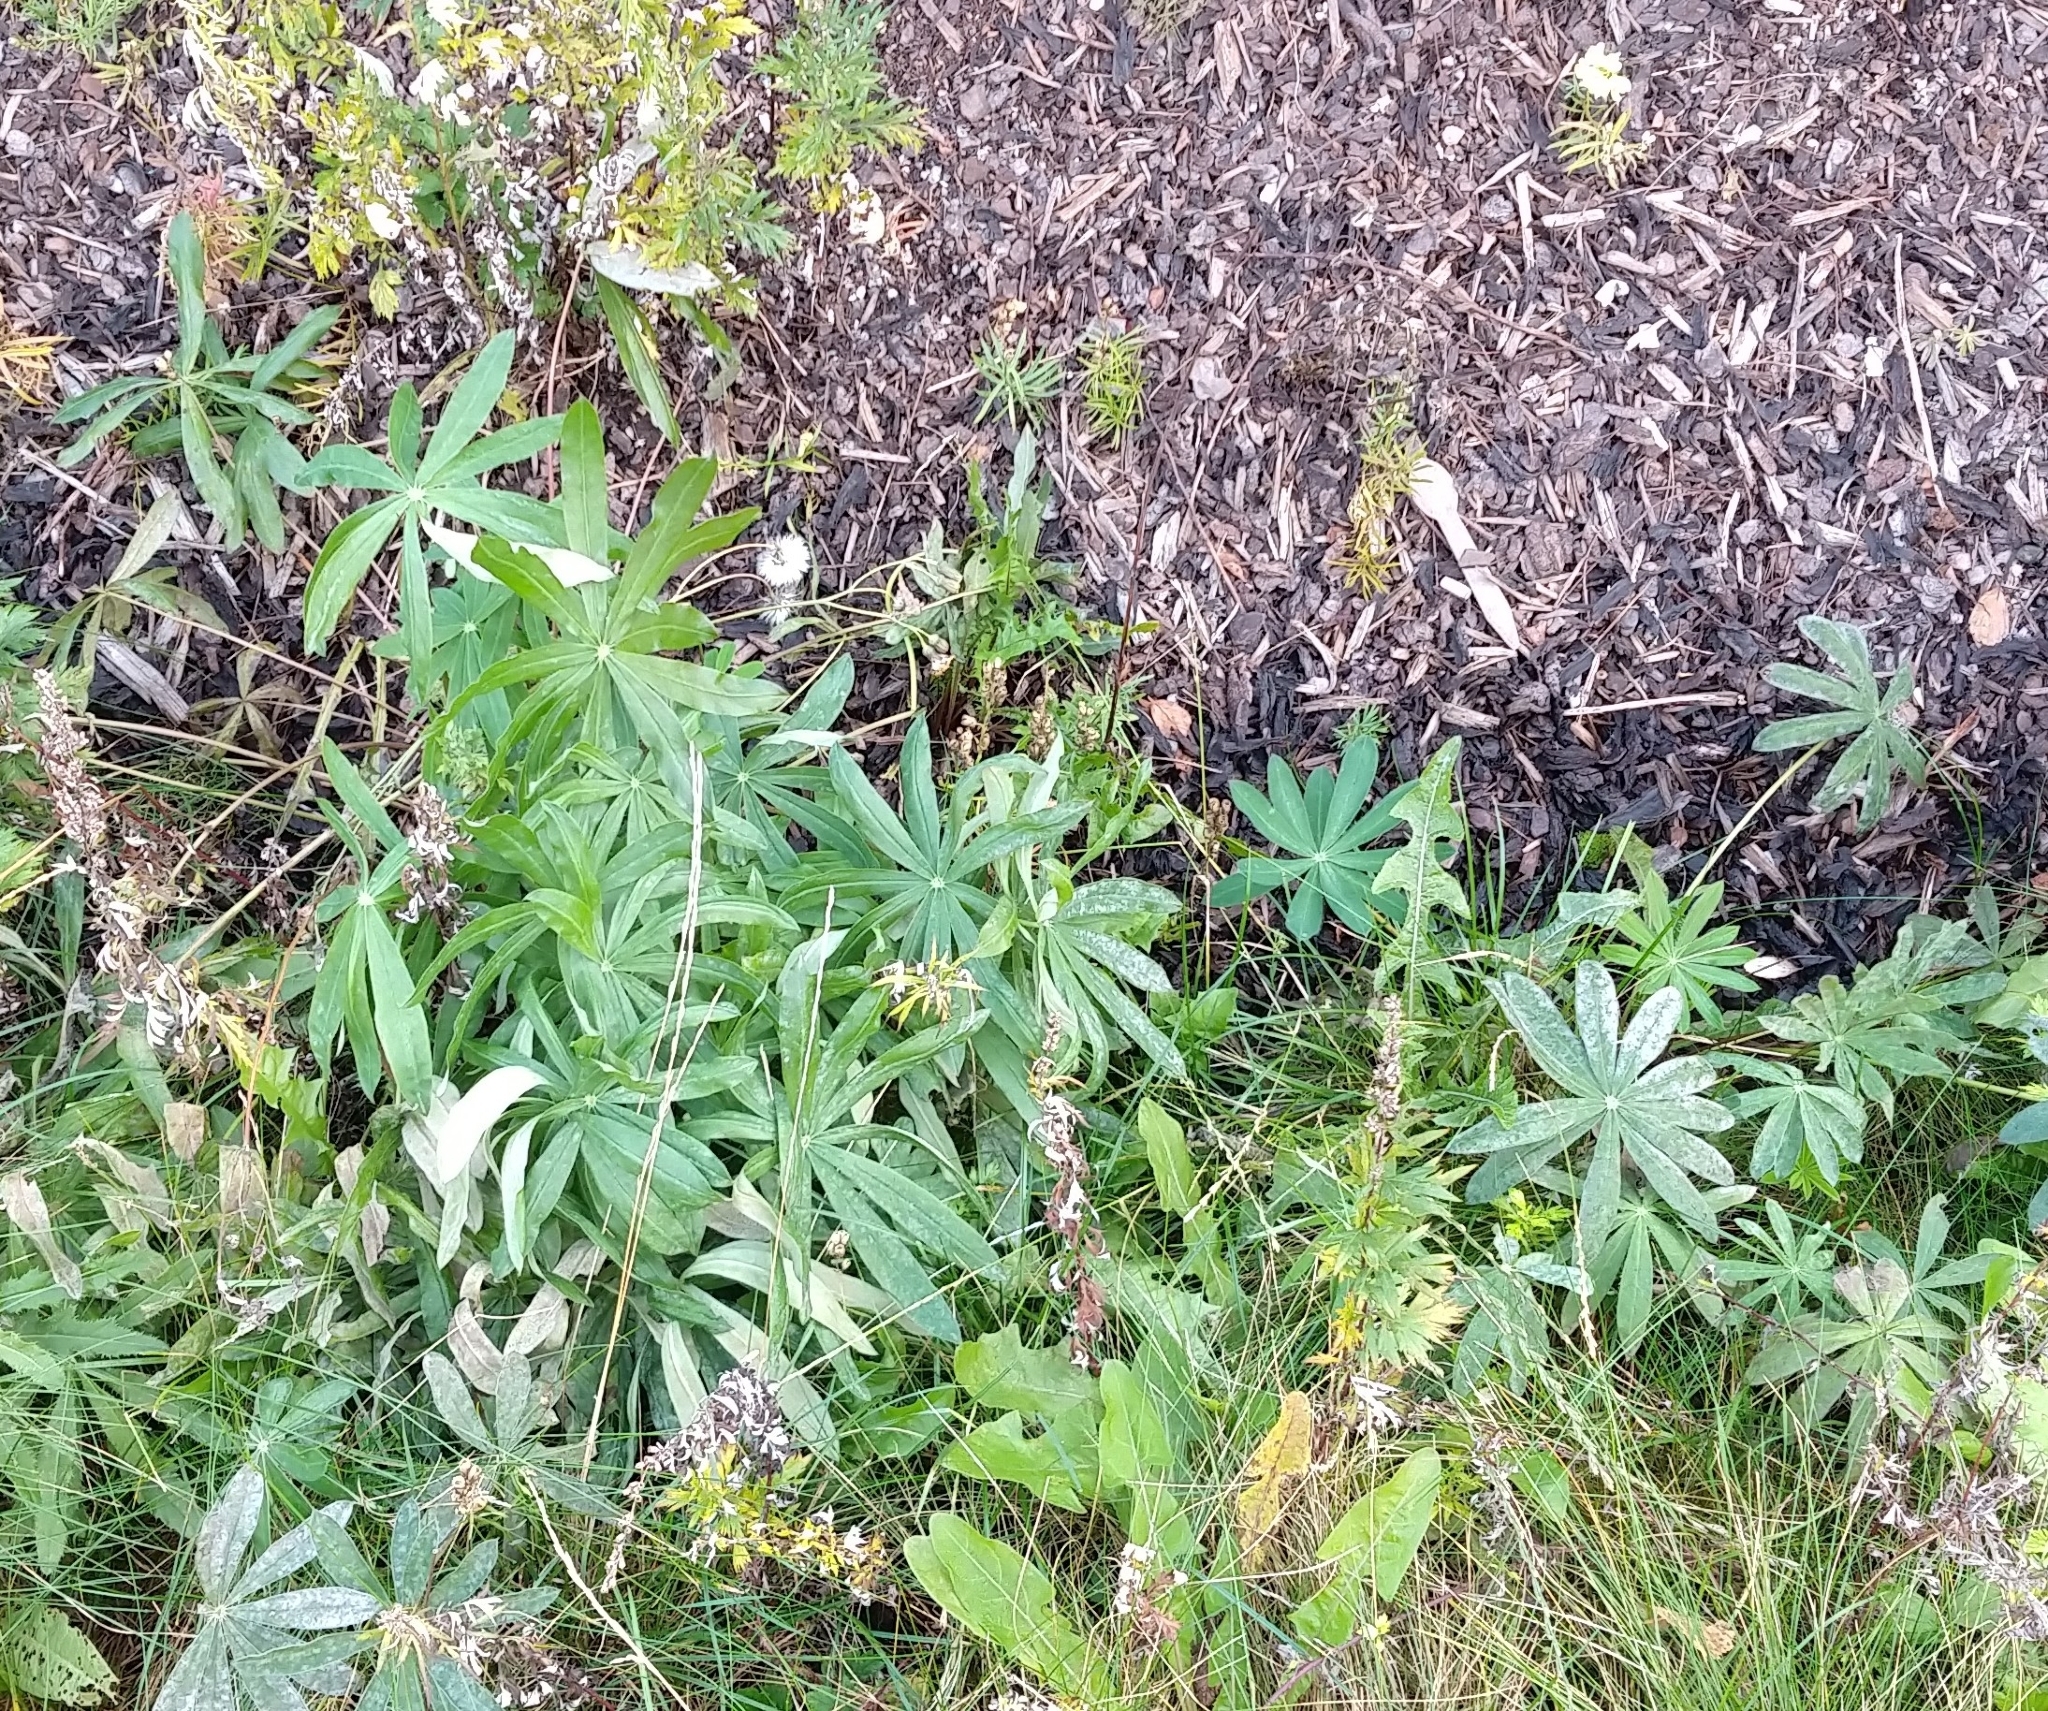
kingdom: Plantae
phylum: Tracheophyta
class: Magnoliopsida
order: Fabales
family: Fabaceae
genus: Lupinus
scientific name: Lupinus polyphyllus
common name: Garden lupin
